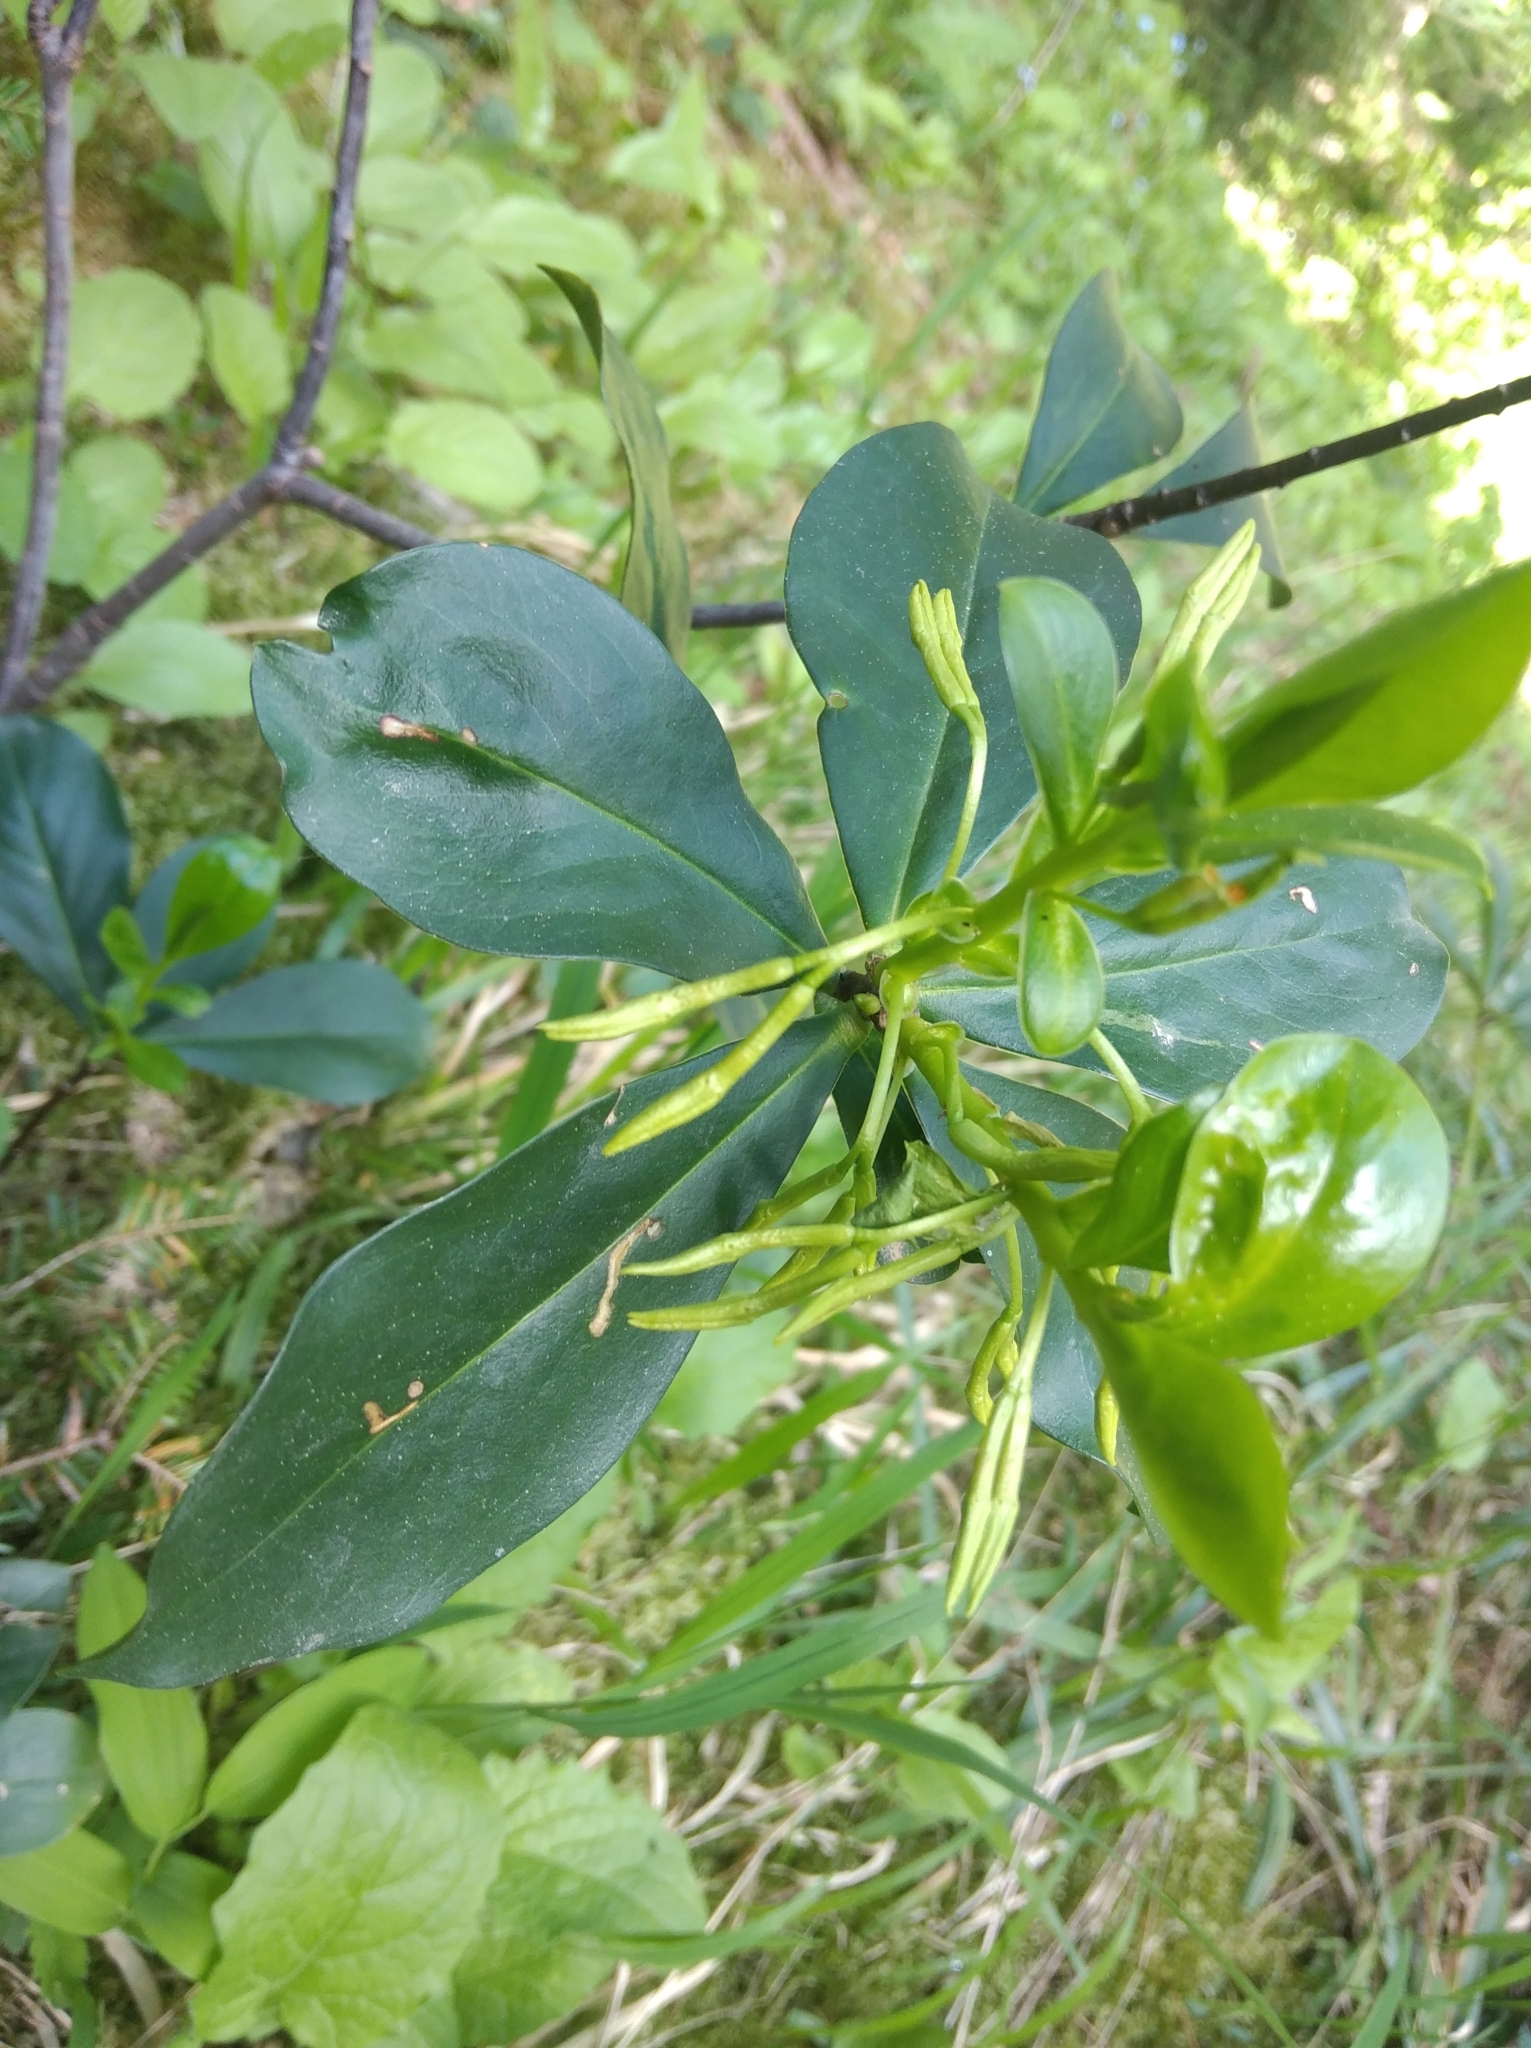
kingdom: Plantae
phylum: Tracheophyta
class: Magnoliopsida
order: Malvales
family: Thymelaeaceae
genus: Daphne
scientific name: Daphne pontica
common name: Twin-flower daphne
